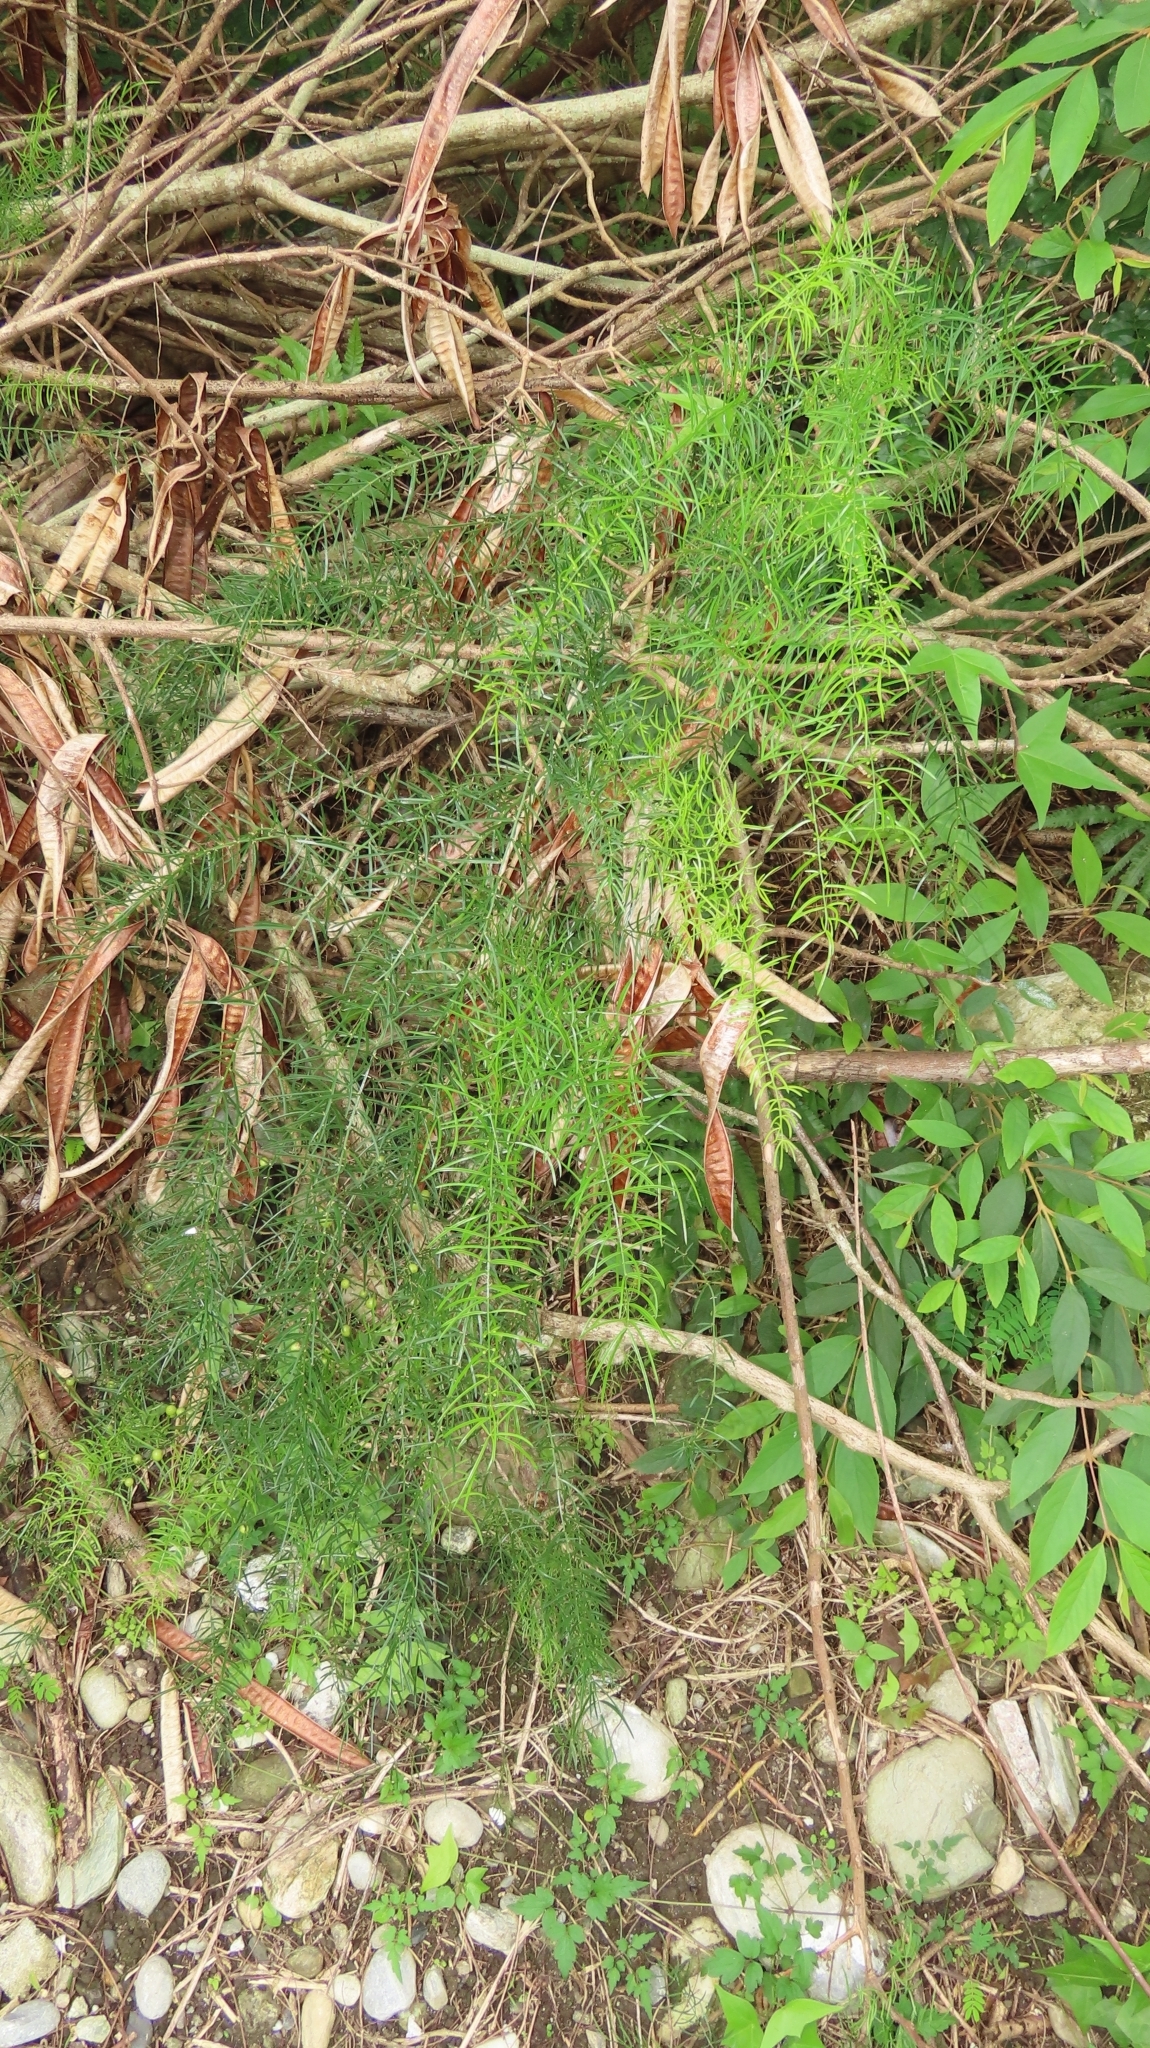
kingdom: Plantae
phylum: Tracheophyta
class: Liliopsida
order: Asparagales
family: Asparagaceae
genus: Asparagus
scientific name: Asparagus cochinchinensis
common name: Chinese asparagus
